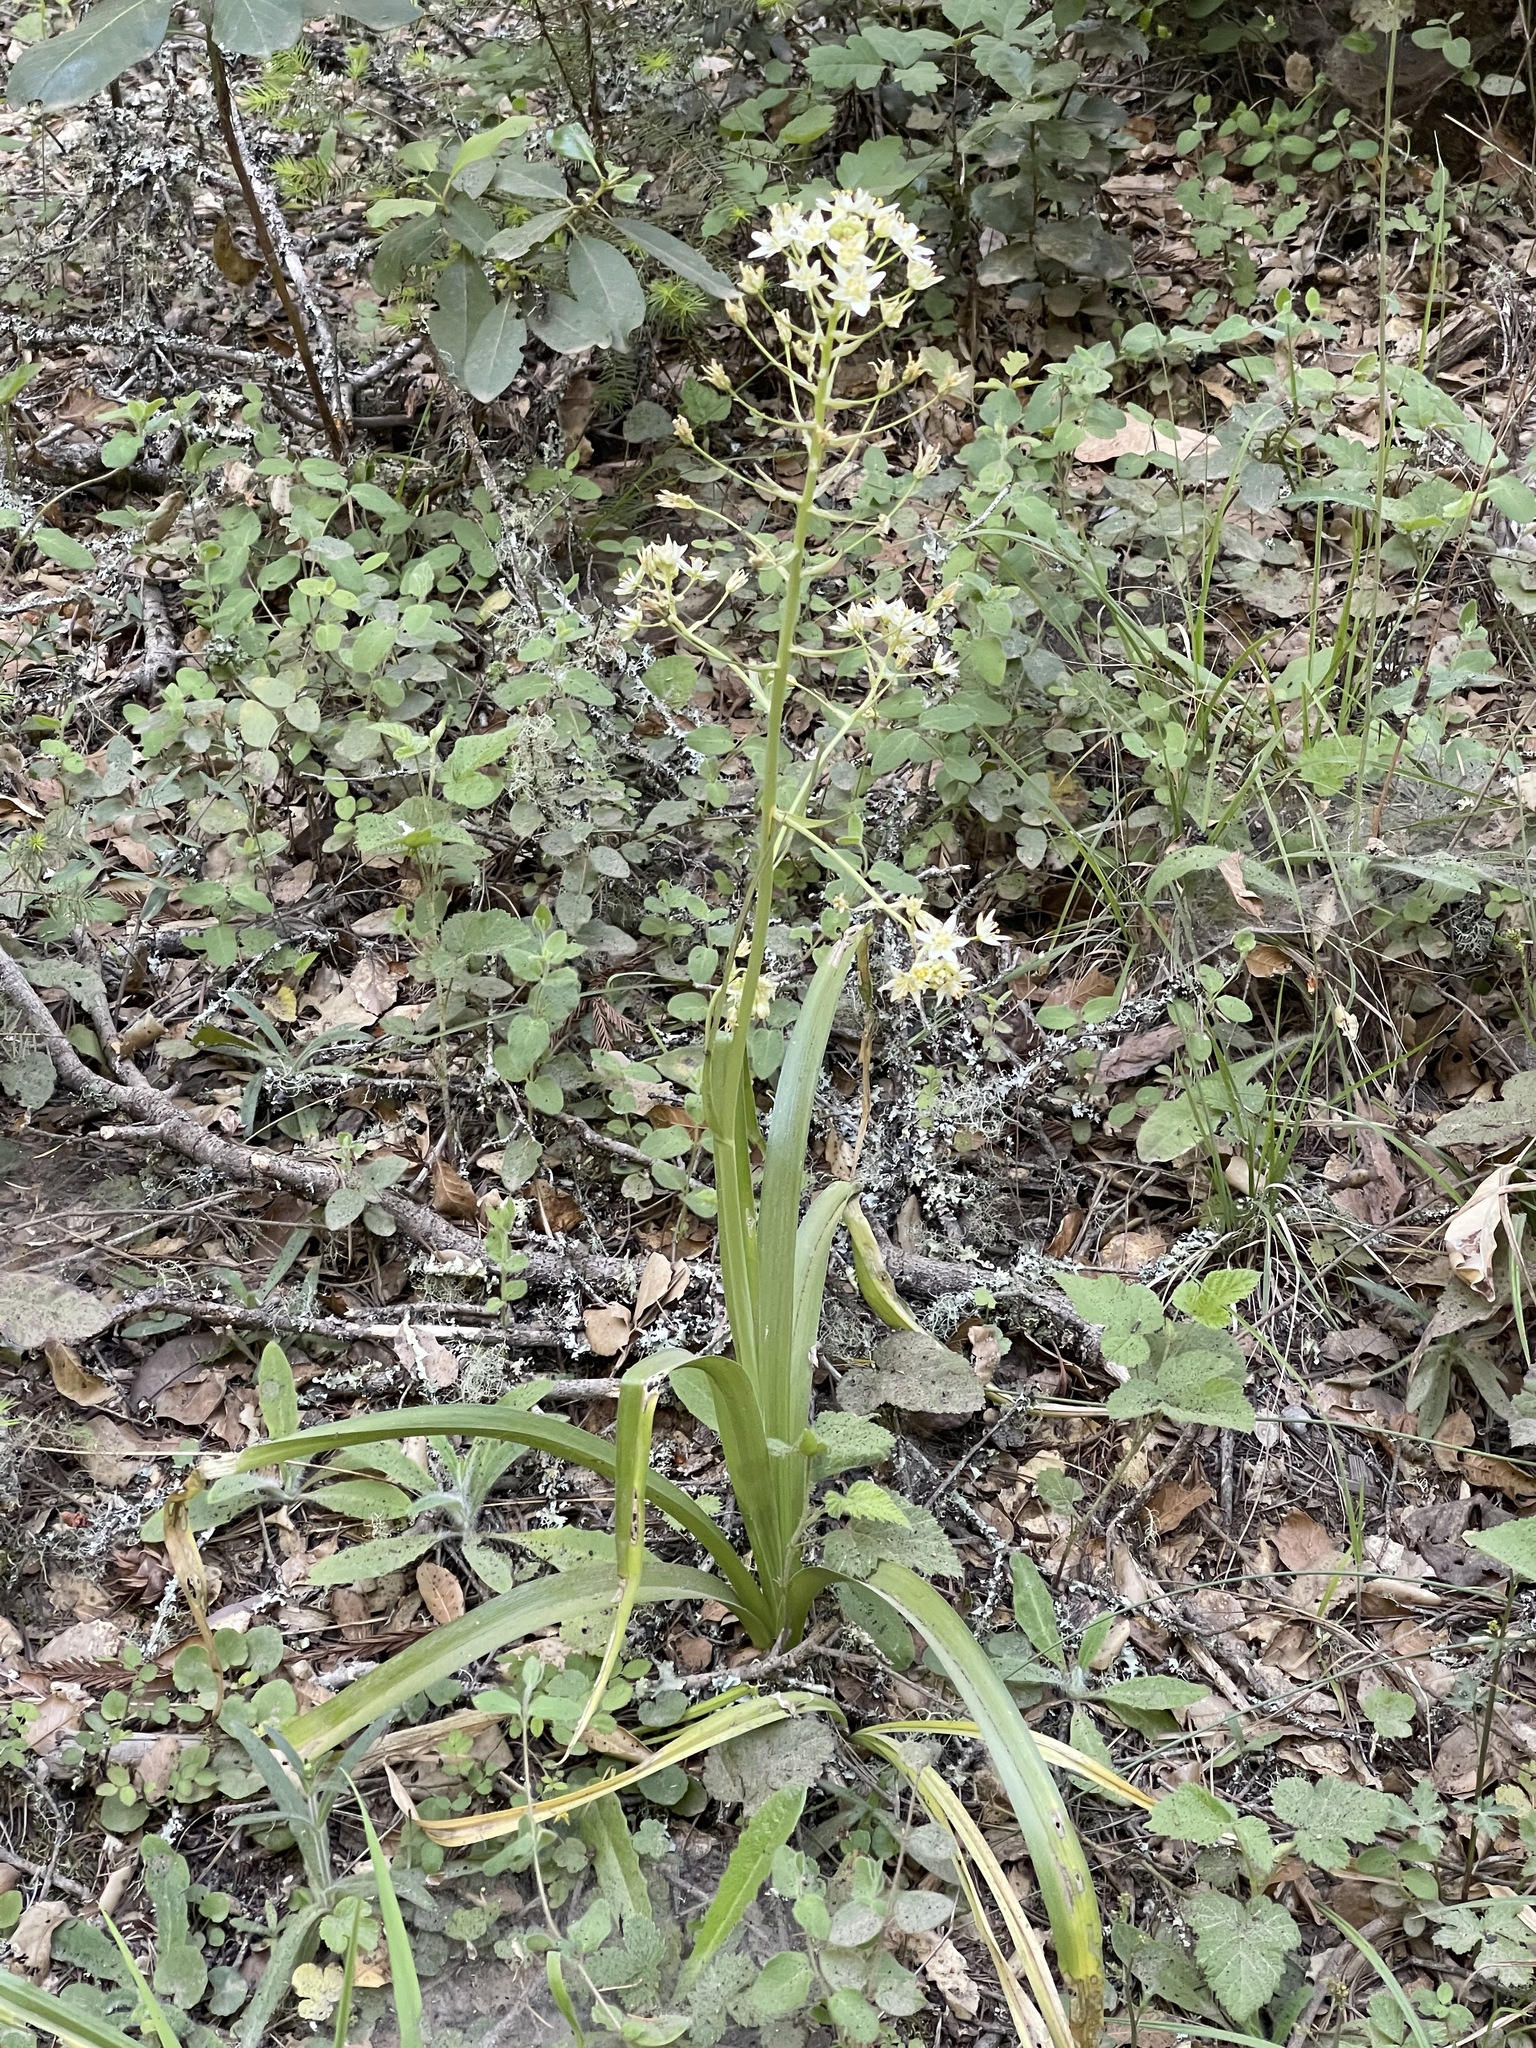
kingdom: Plantae
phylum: Tracheophyta
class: Liliopsida
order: Liliales
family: Melanthiaceae
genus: Toxicoscordion
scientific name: Toxicoscordion fremontii
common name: Fremont's death camas
